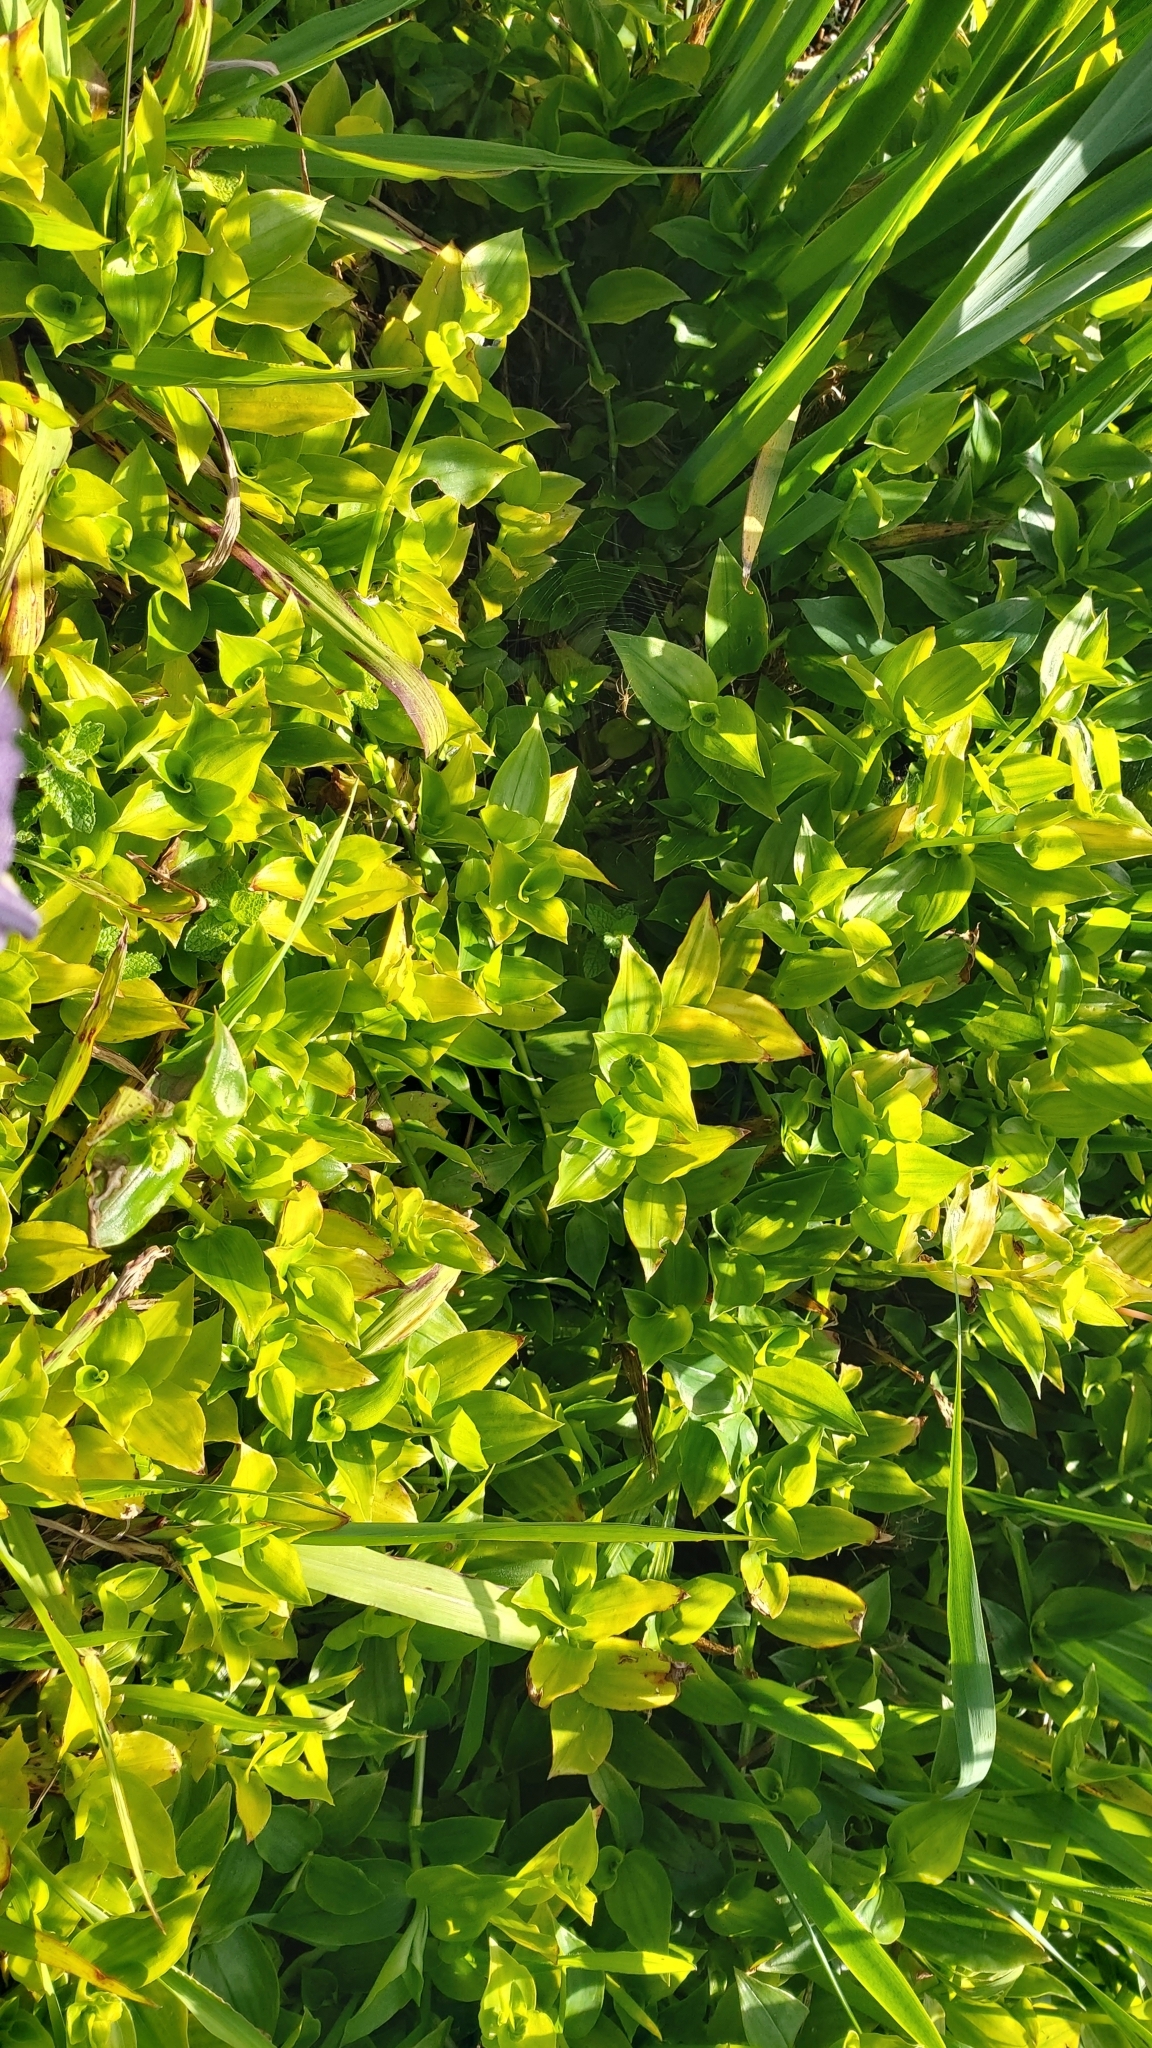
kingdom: Plantae
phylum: Tracheophyta
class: Liliopsida
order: Commelinales
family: Commelinaceae
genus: Tradescantia
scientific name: Tradescantia fluminensis
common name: Wandering-jew
